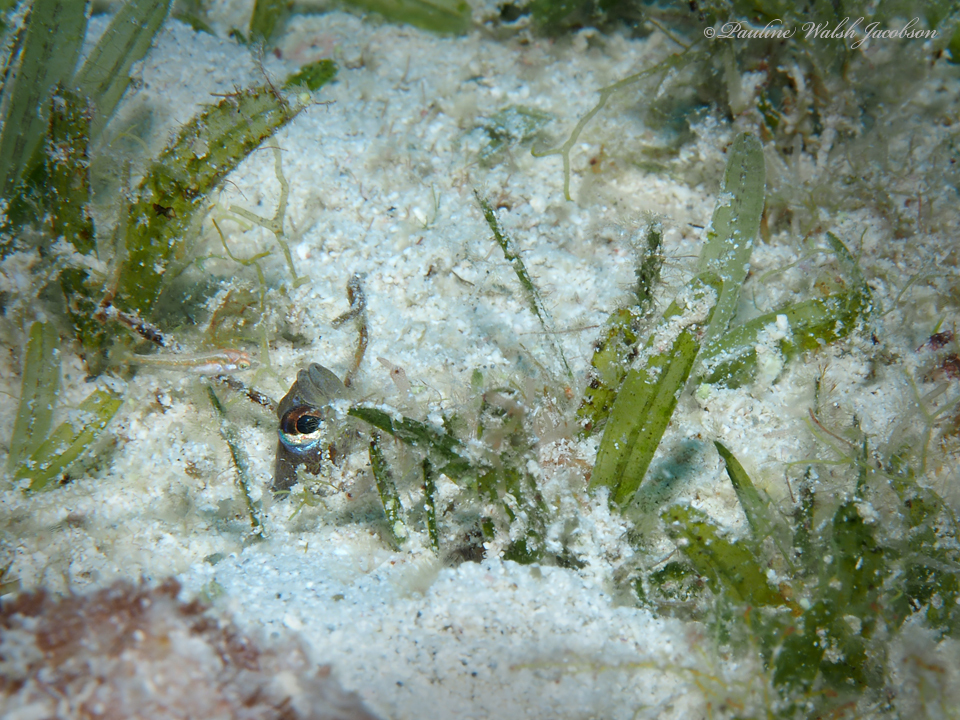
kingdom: Animalia
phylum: Chordata
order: Anguilliformes
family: Congridae
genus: Heteroconger
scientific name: Heteroconger longissimus
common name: Garden eel
